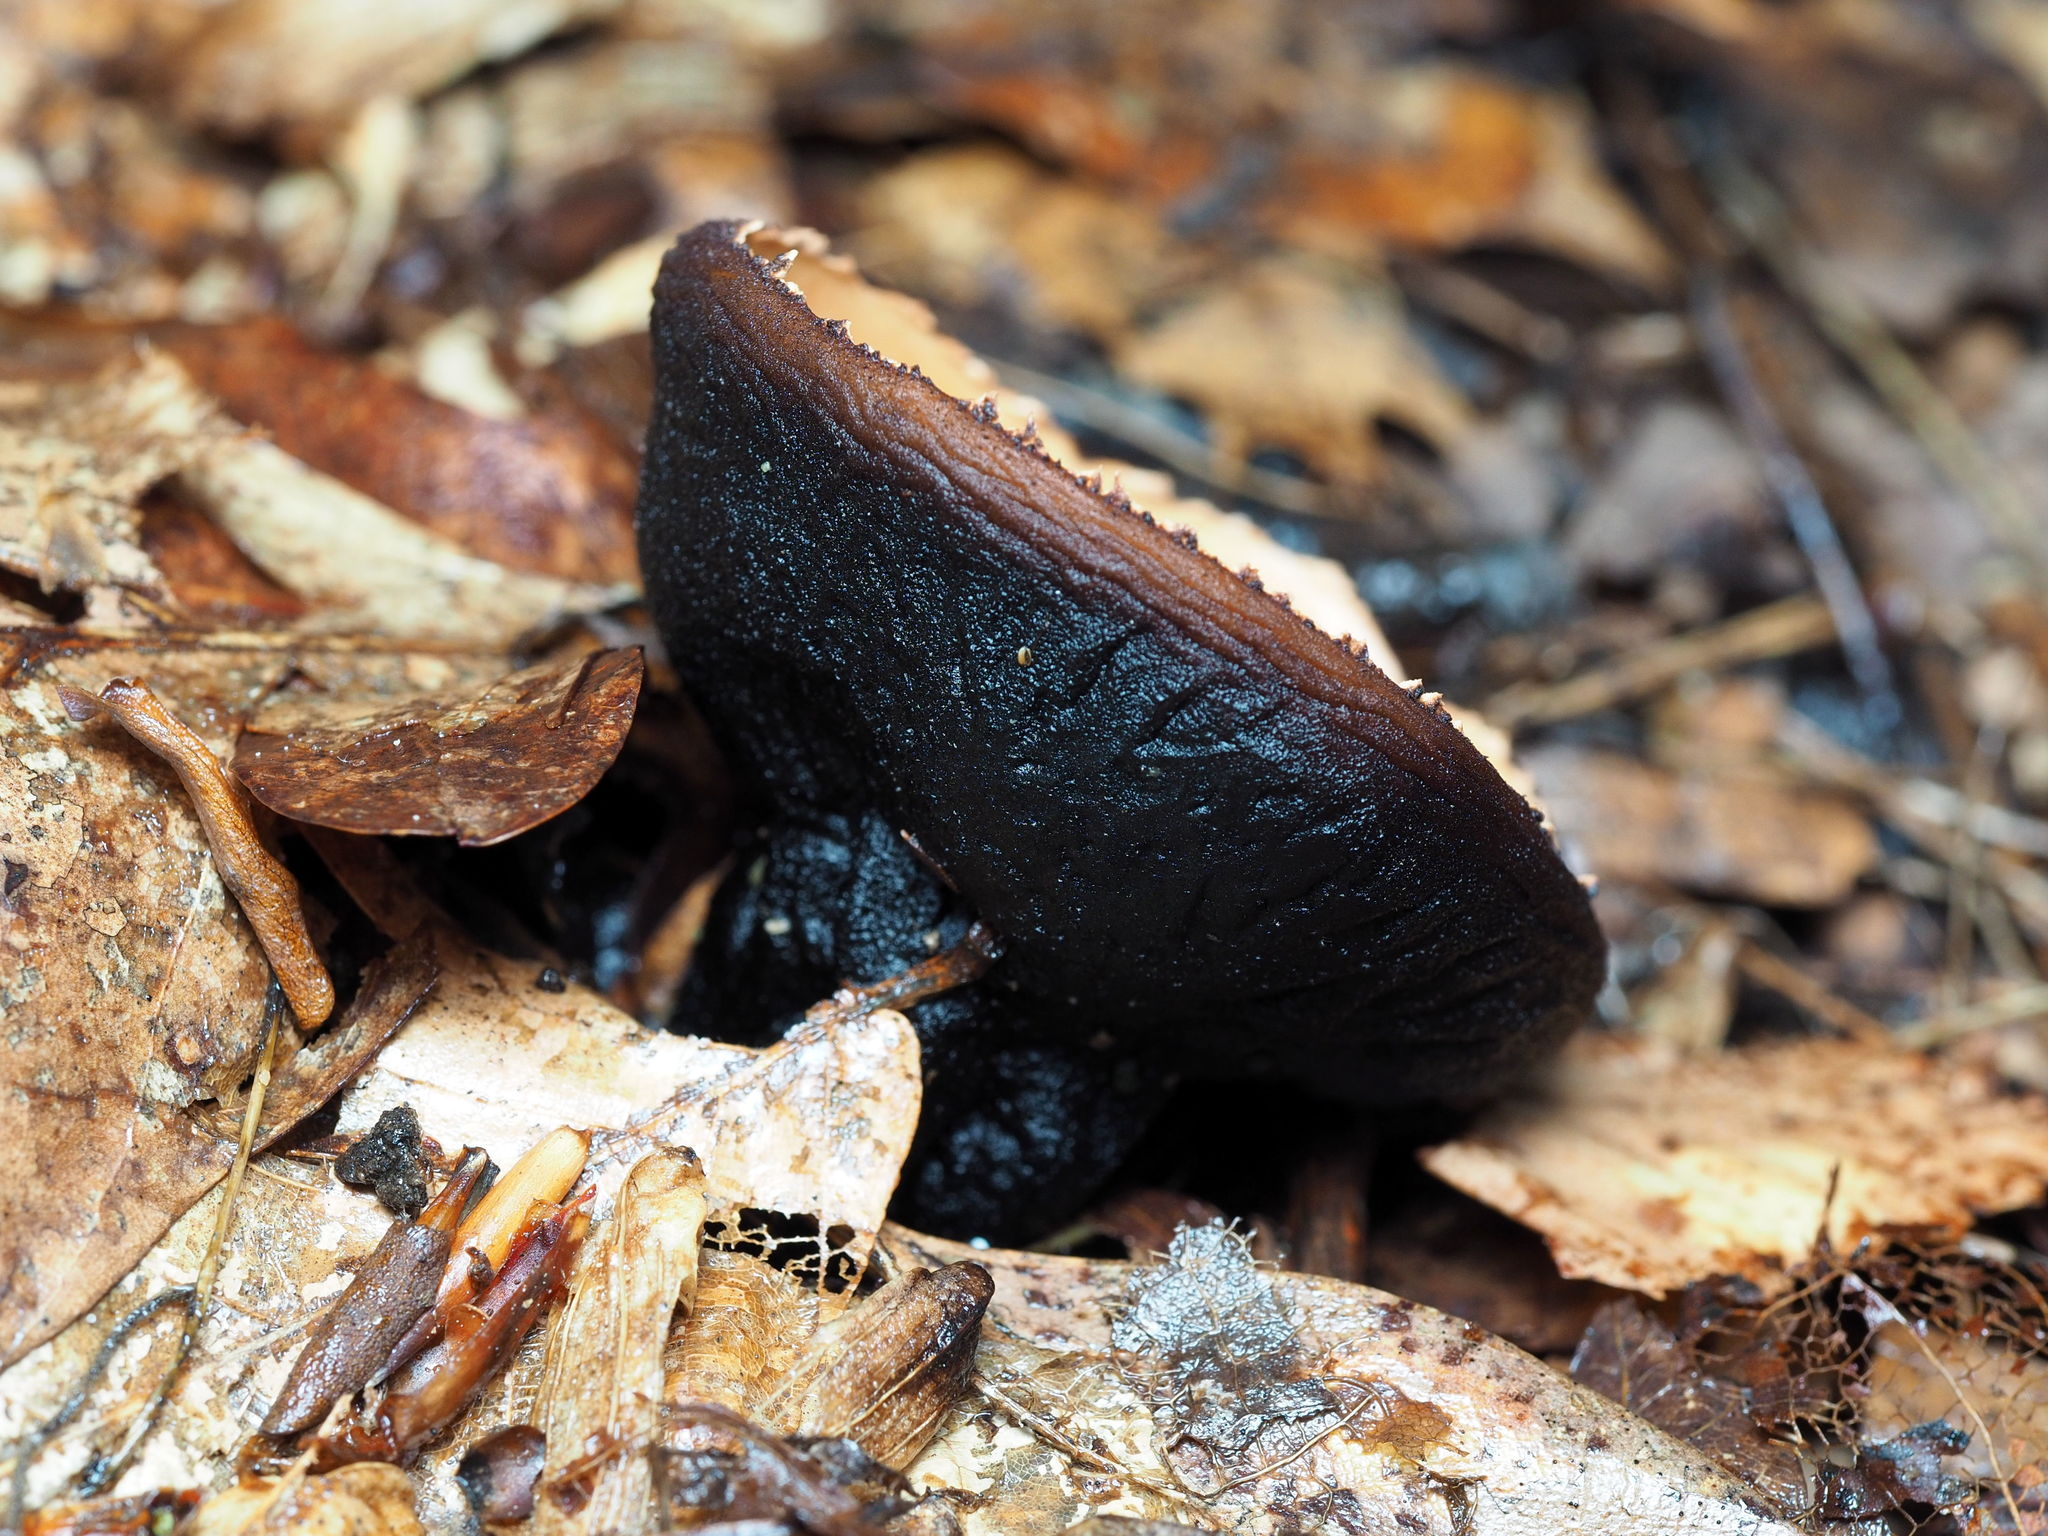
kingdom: Fungi
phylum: Ascomycota
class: Pezizomycetes
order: Pezizales
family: Sarcosomataceae
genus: Galiella
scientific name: Galiella rufa
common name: Hairy rubber cup
